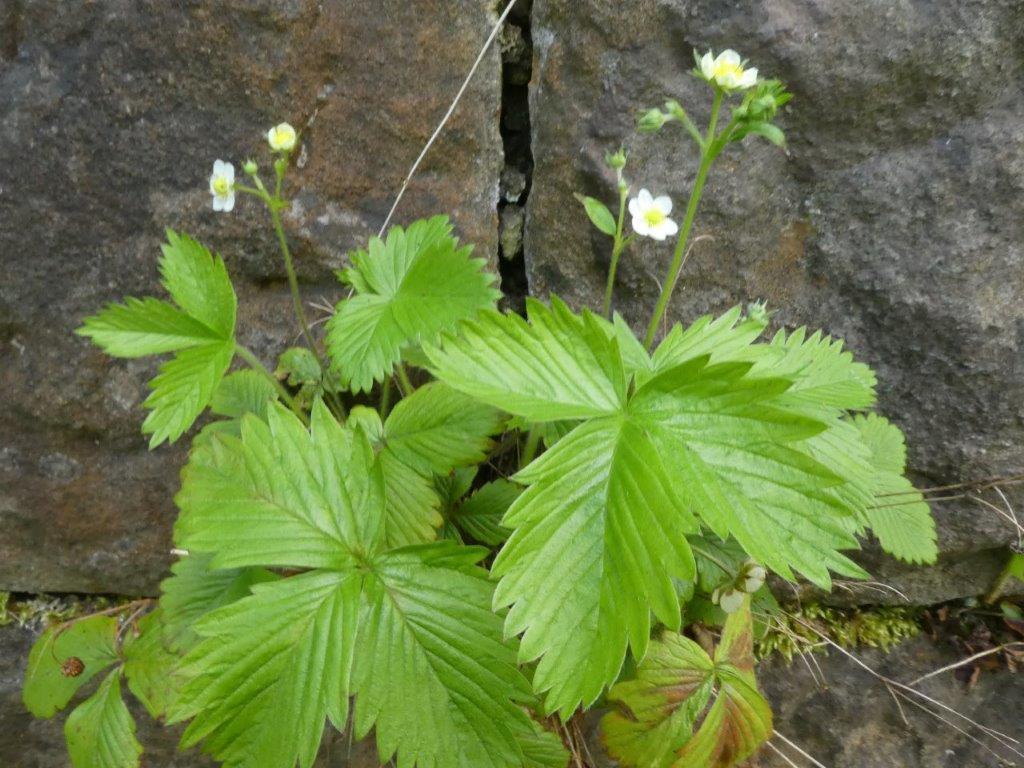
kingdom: Plantae
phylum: Tracheophyta
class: Magnoliopsida
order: Rosales
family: Rosaceae
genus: Fragaria
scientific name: Fragaria vesca
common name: Wild strawberry
